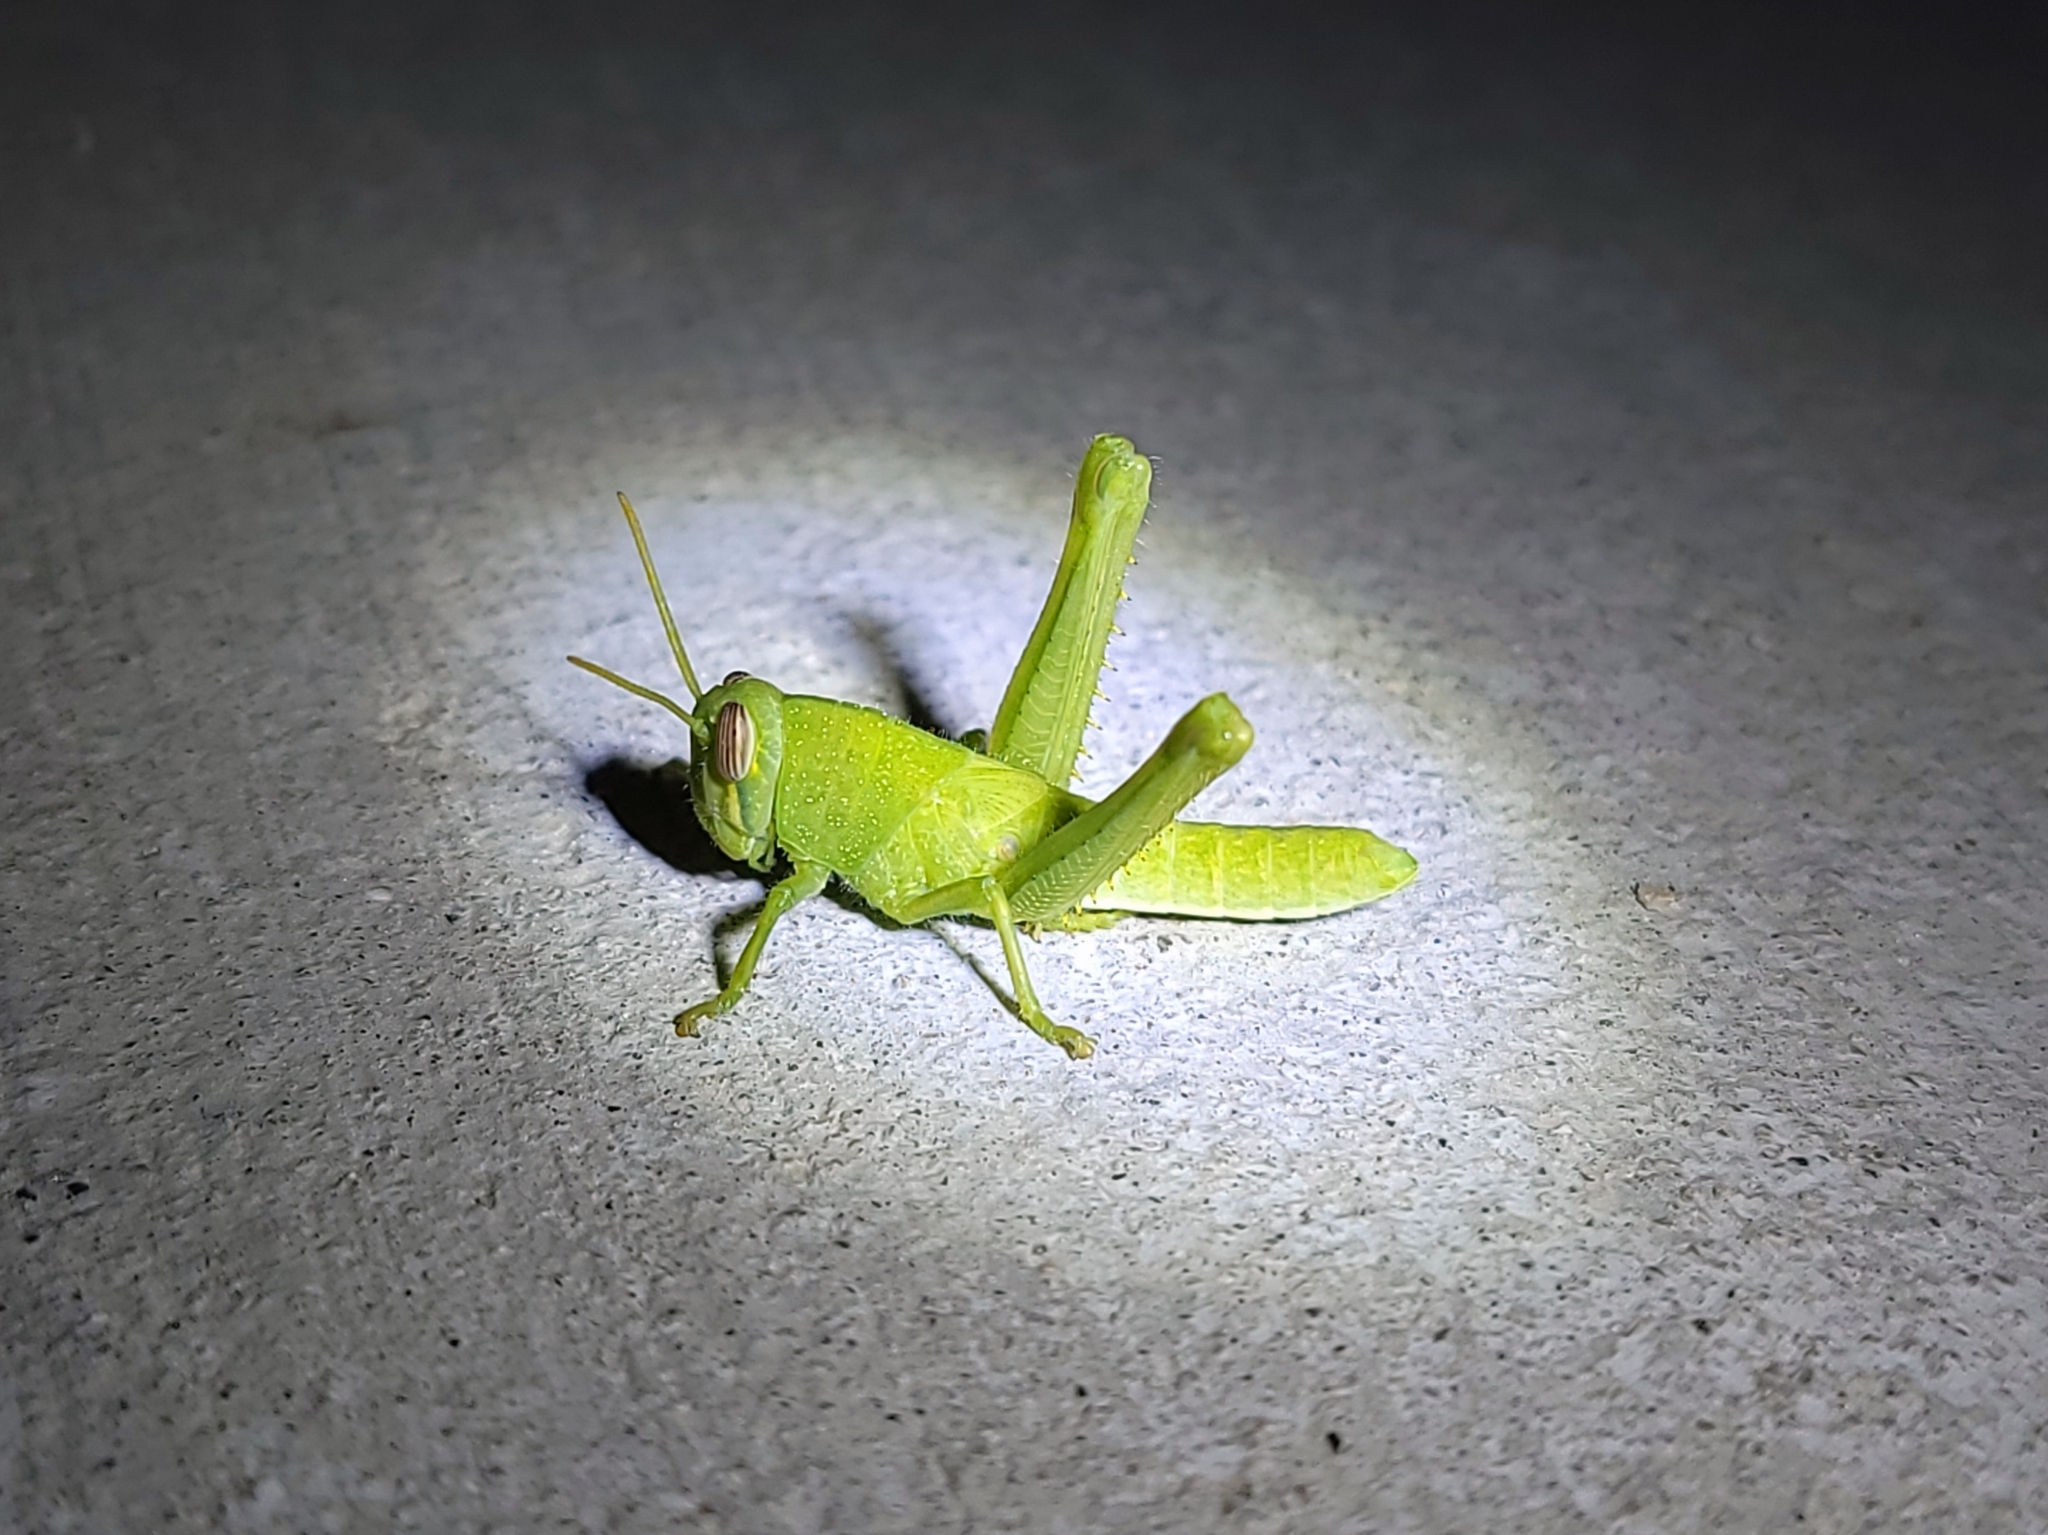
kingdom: Animalia
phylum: Arthropoda
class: Insecta
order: Orthoptera
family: Acrididae
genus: Schistocerca
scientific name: Schistocerca nitens
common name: Vagrant grasshopper
